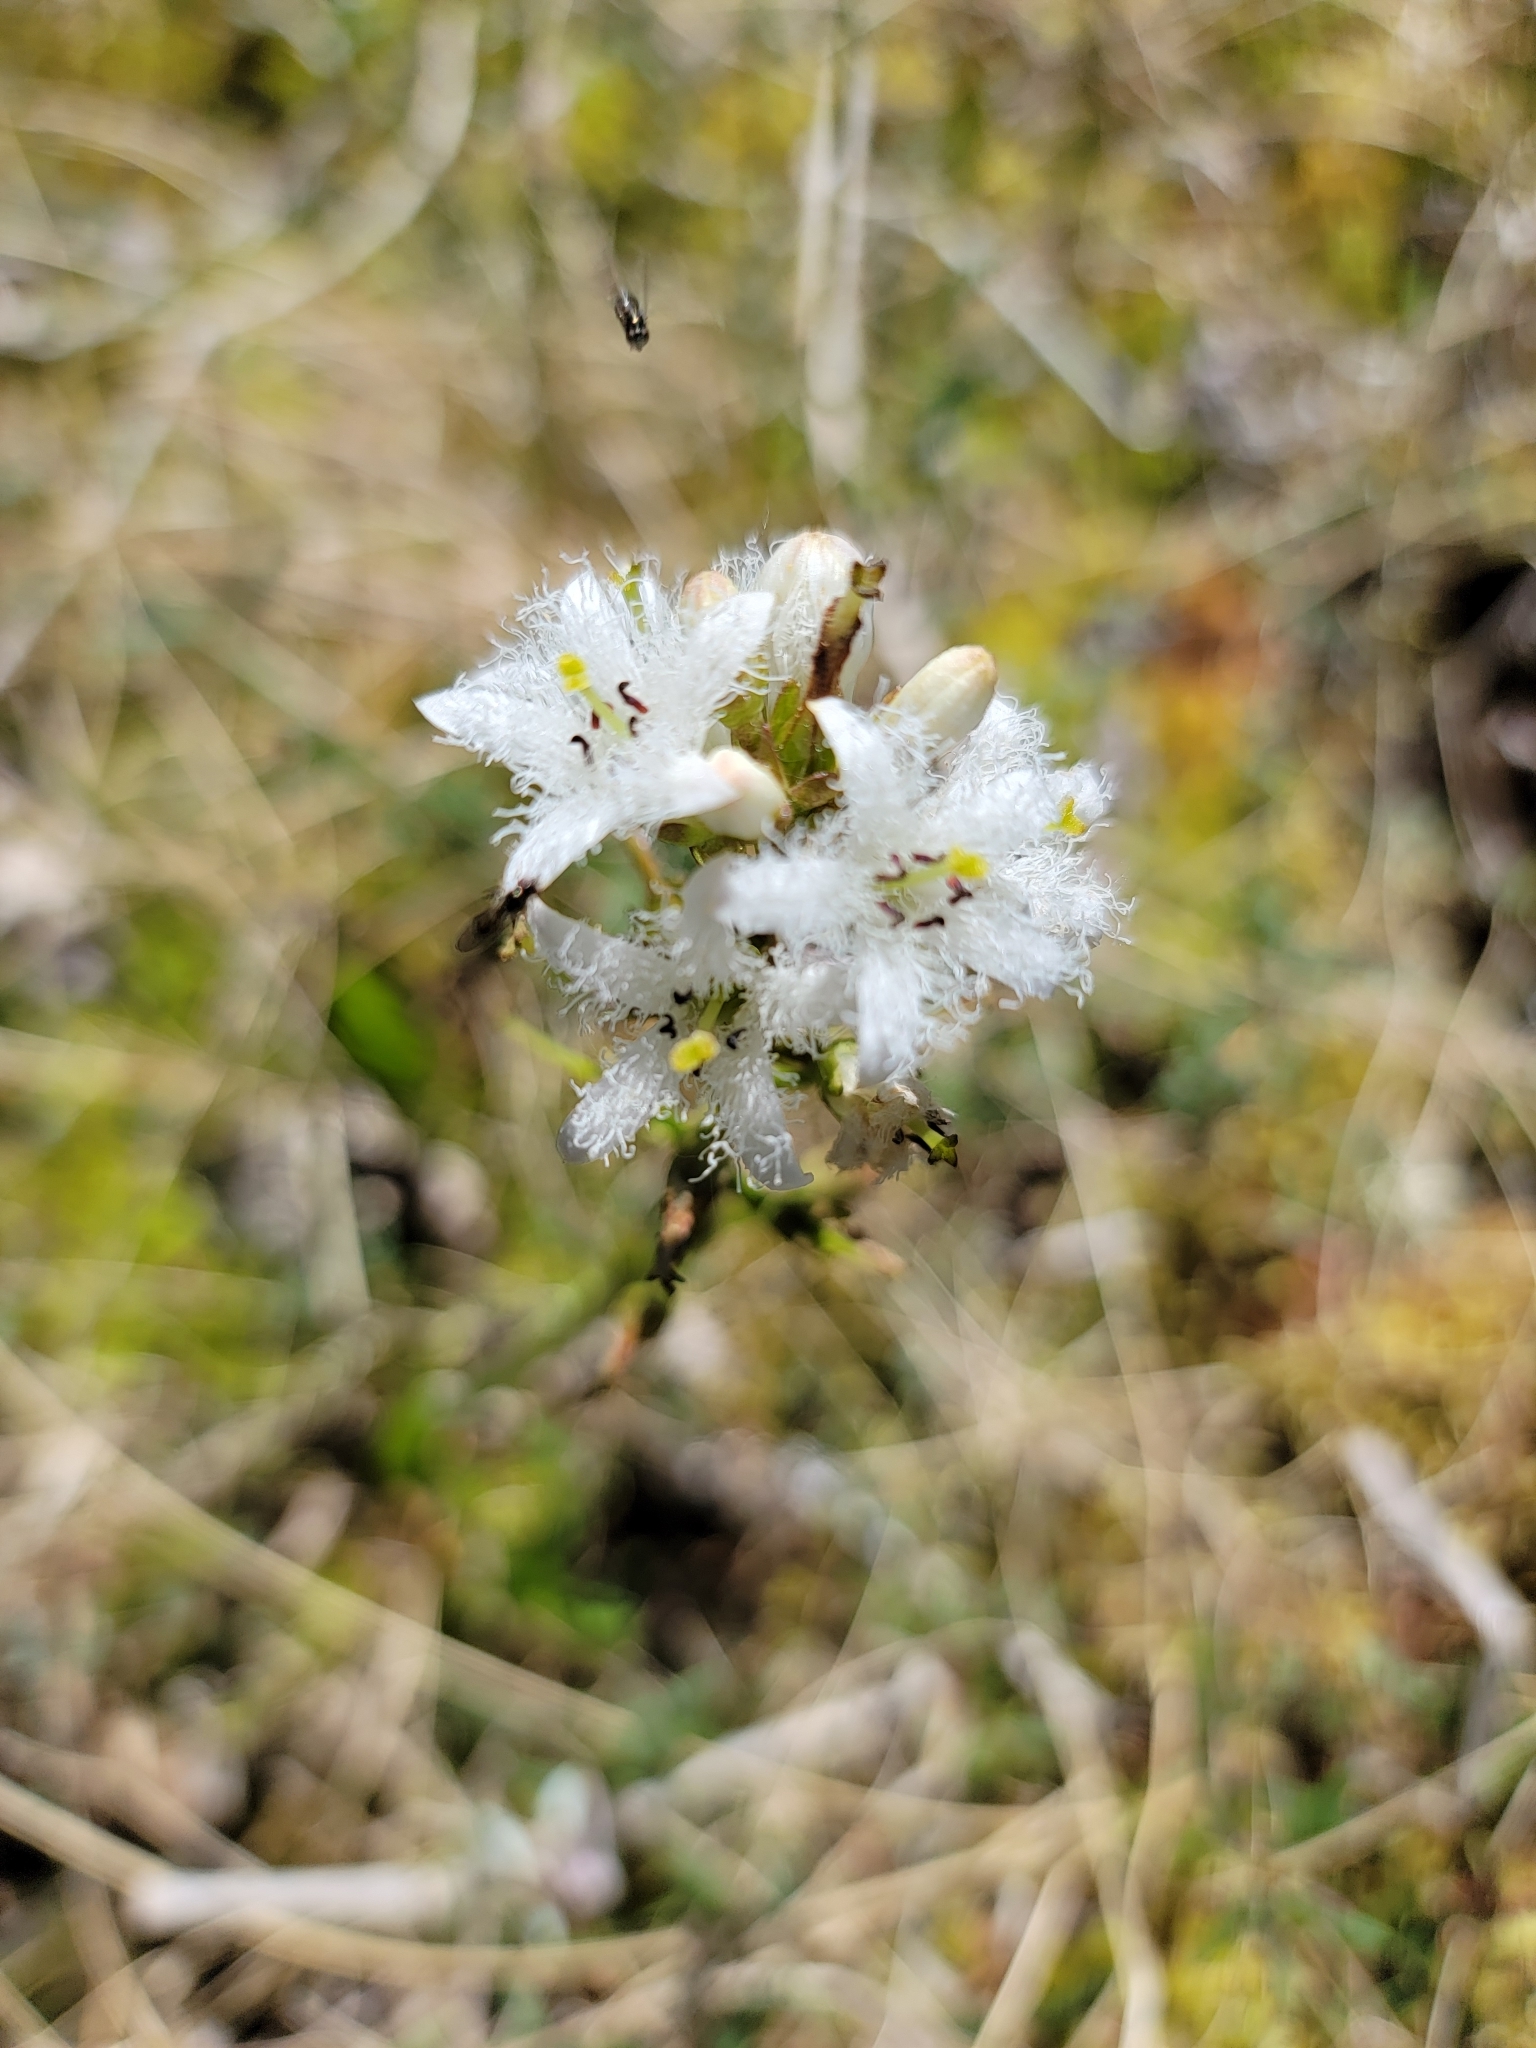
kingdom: Plantae
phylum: Tracheophyta
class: Magnoliopsida
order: Asterales
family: Menyanthaceae
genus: Menyanthes
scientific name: Menyanthes trifoliata
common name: Bogbean
